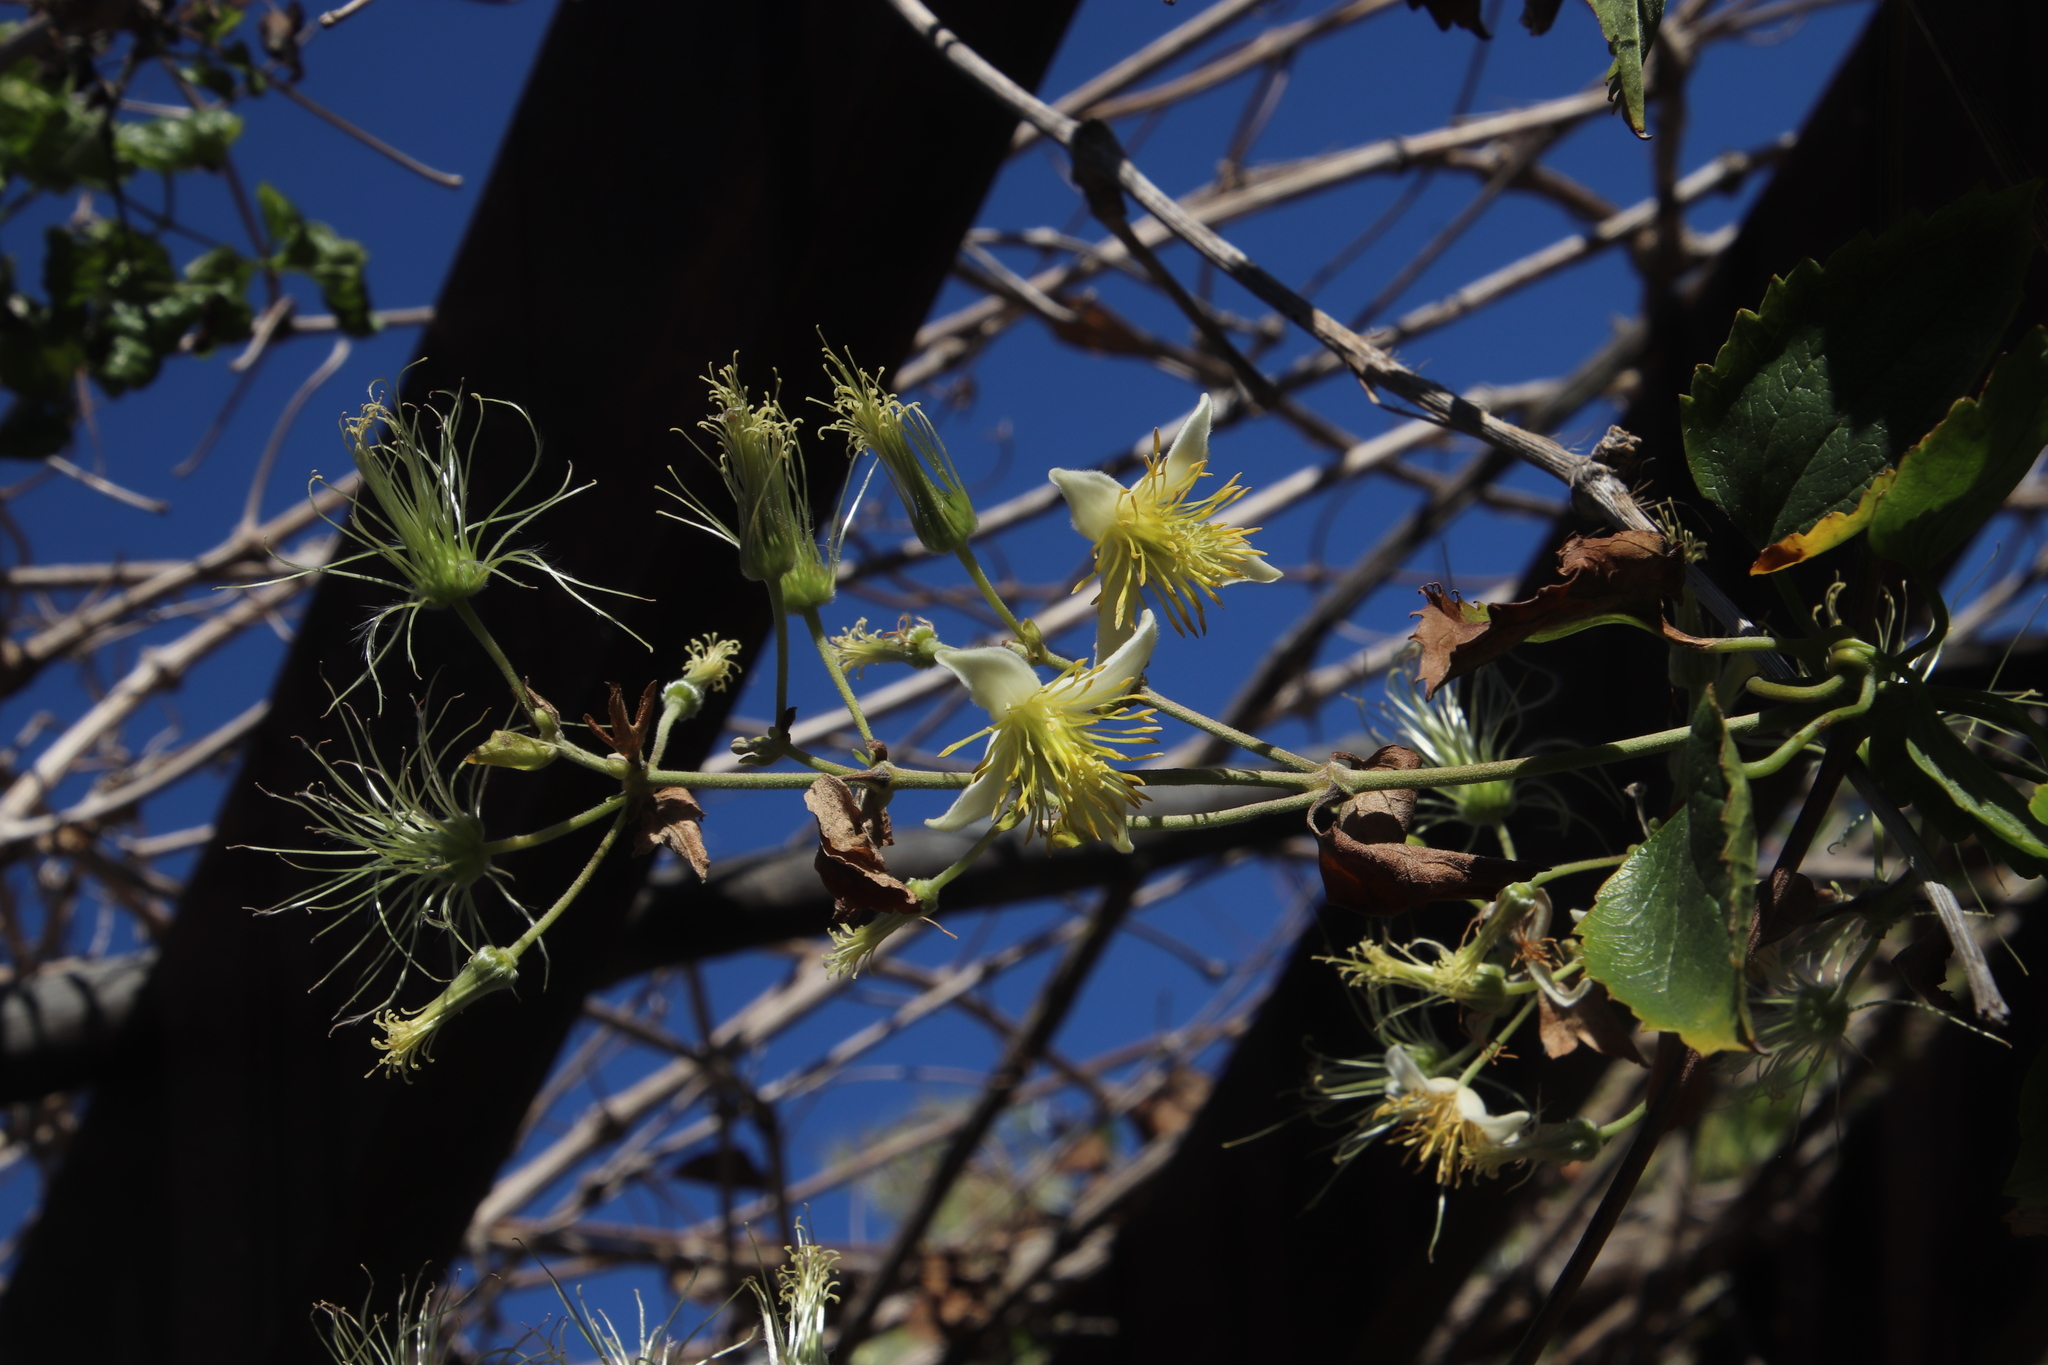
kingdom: Plantae
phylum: Tracheophyta
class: Magnoliopsida
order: Ranunculales
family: Ranunculaceae
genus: Clematis
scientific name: Clematis brachiata
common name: Traveler's-joy
